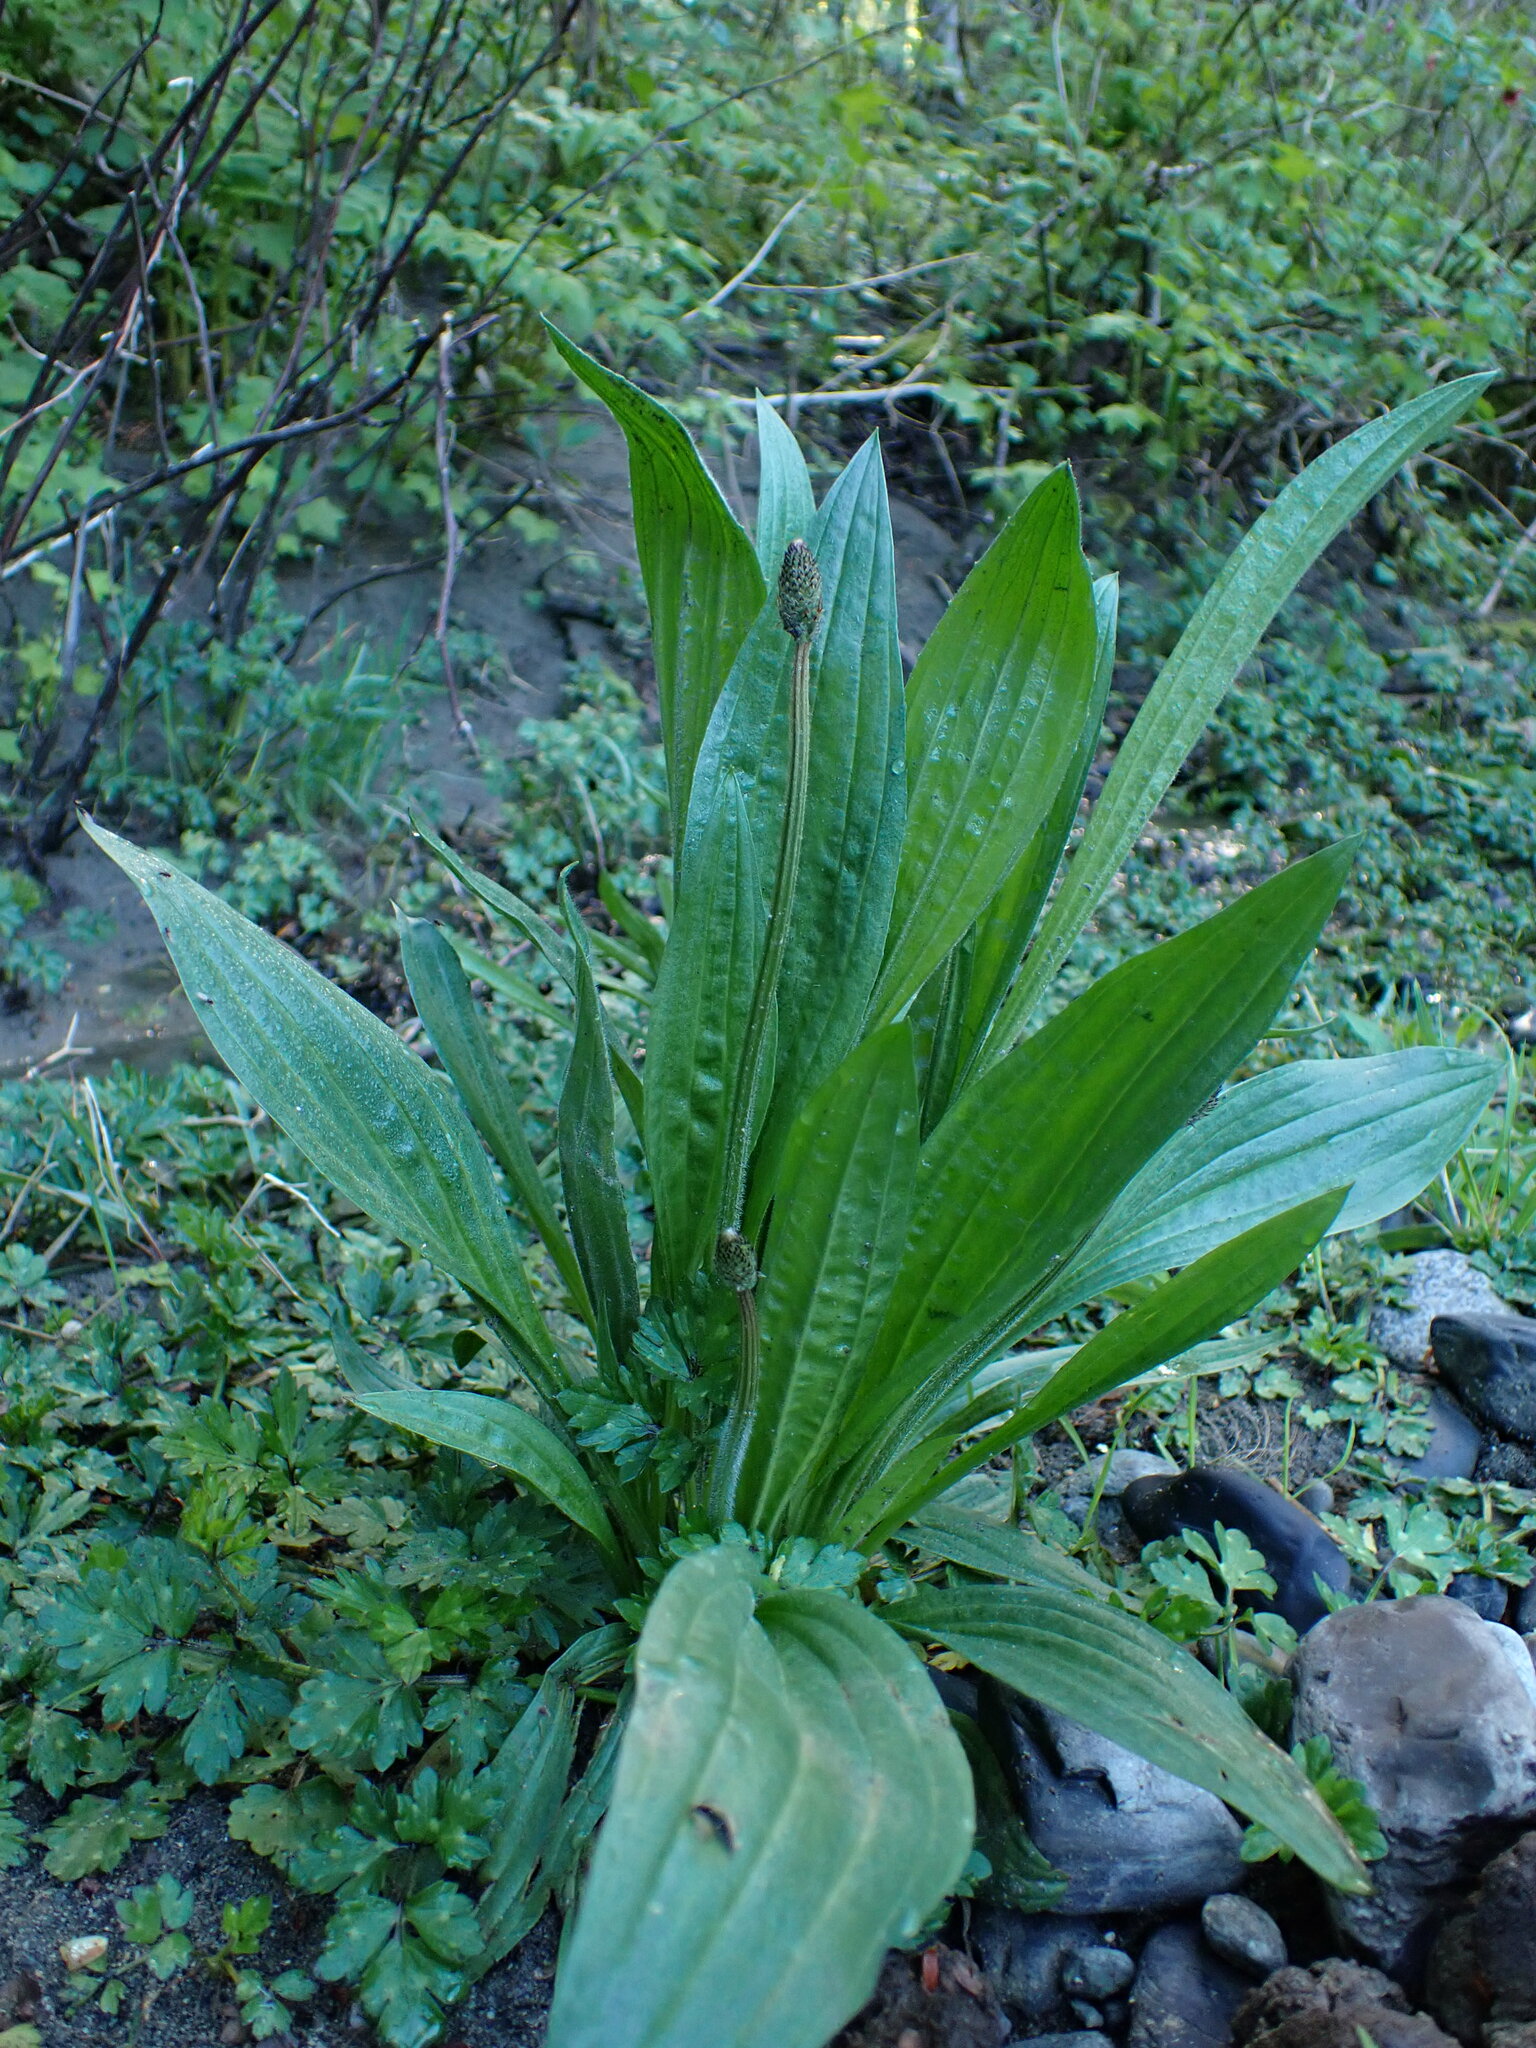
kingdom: Plantae
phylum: Tracheophyta
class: Magnoliopsida
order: Lamiales
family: Plantaginaceae
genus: Plantago
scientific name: Plantago lanceolata
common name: Ribwort plantain
